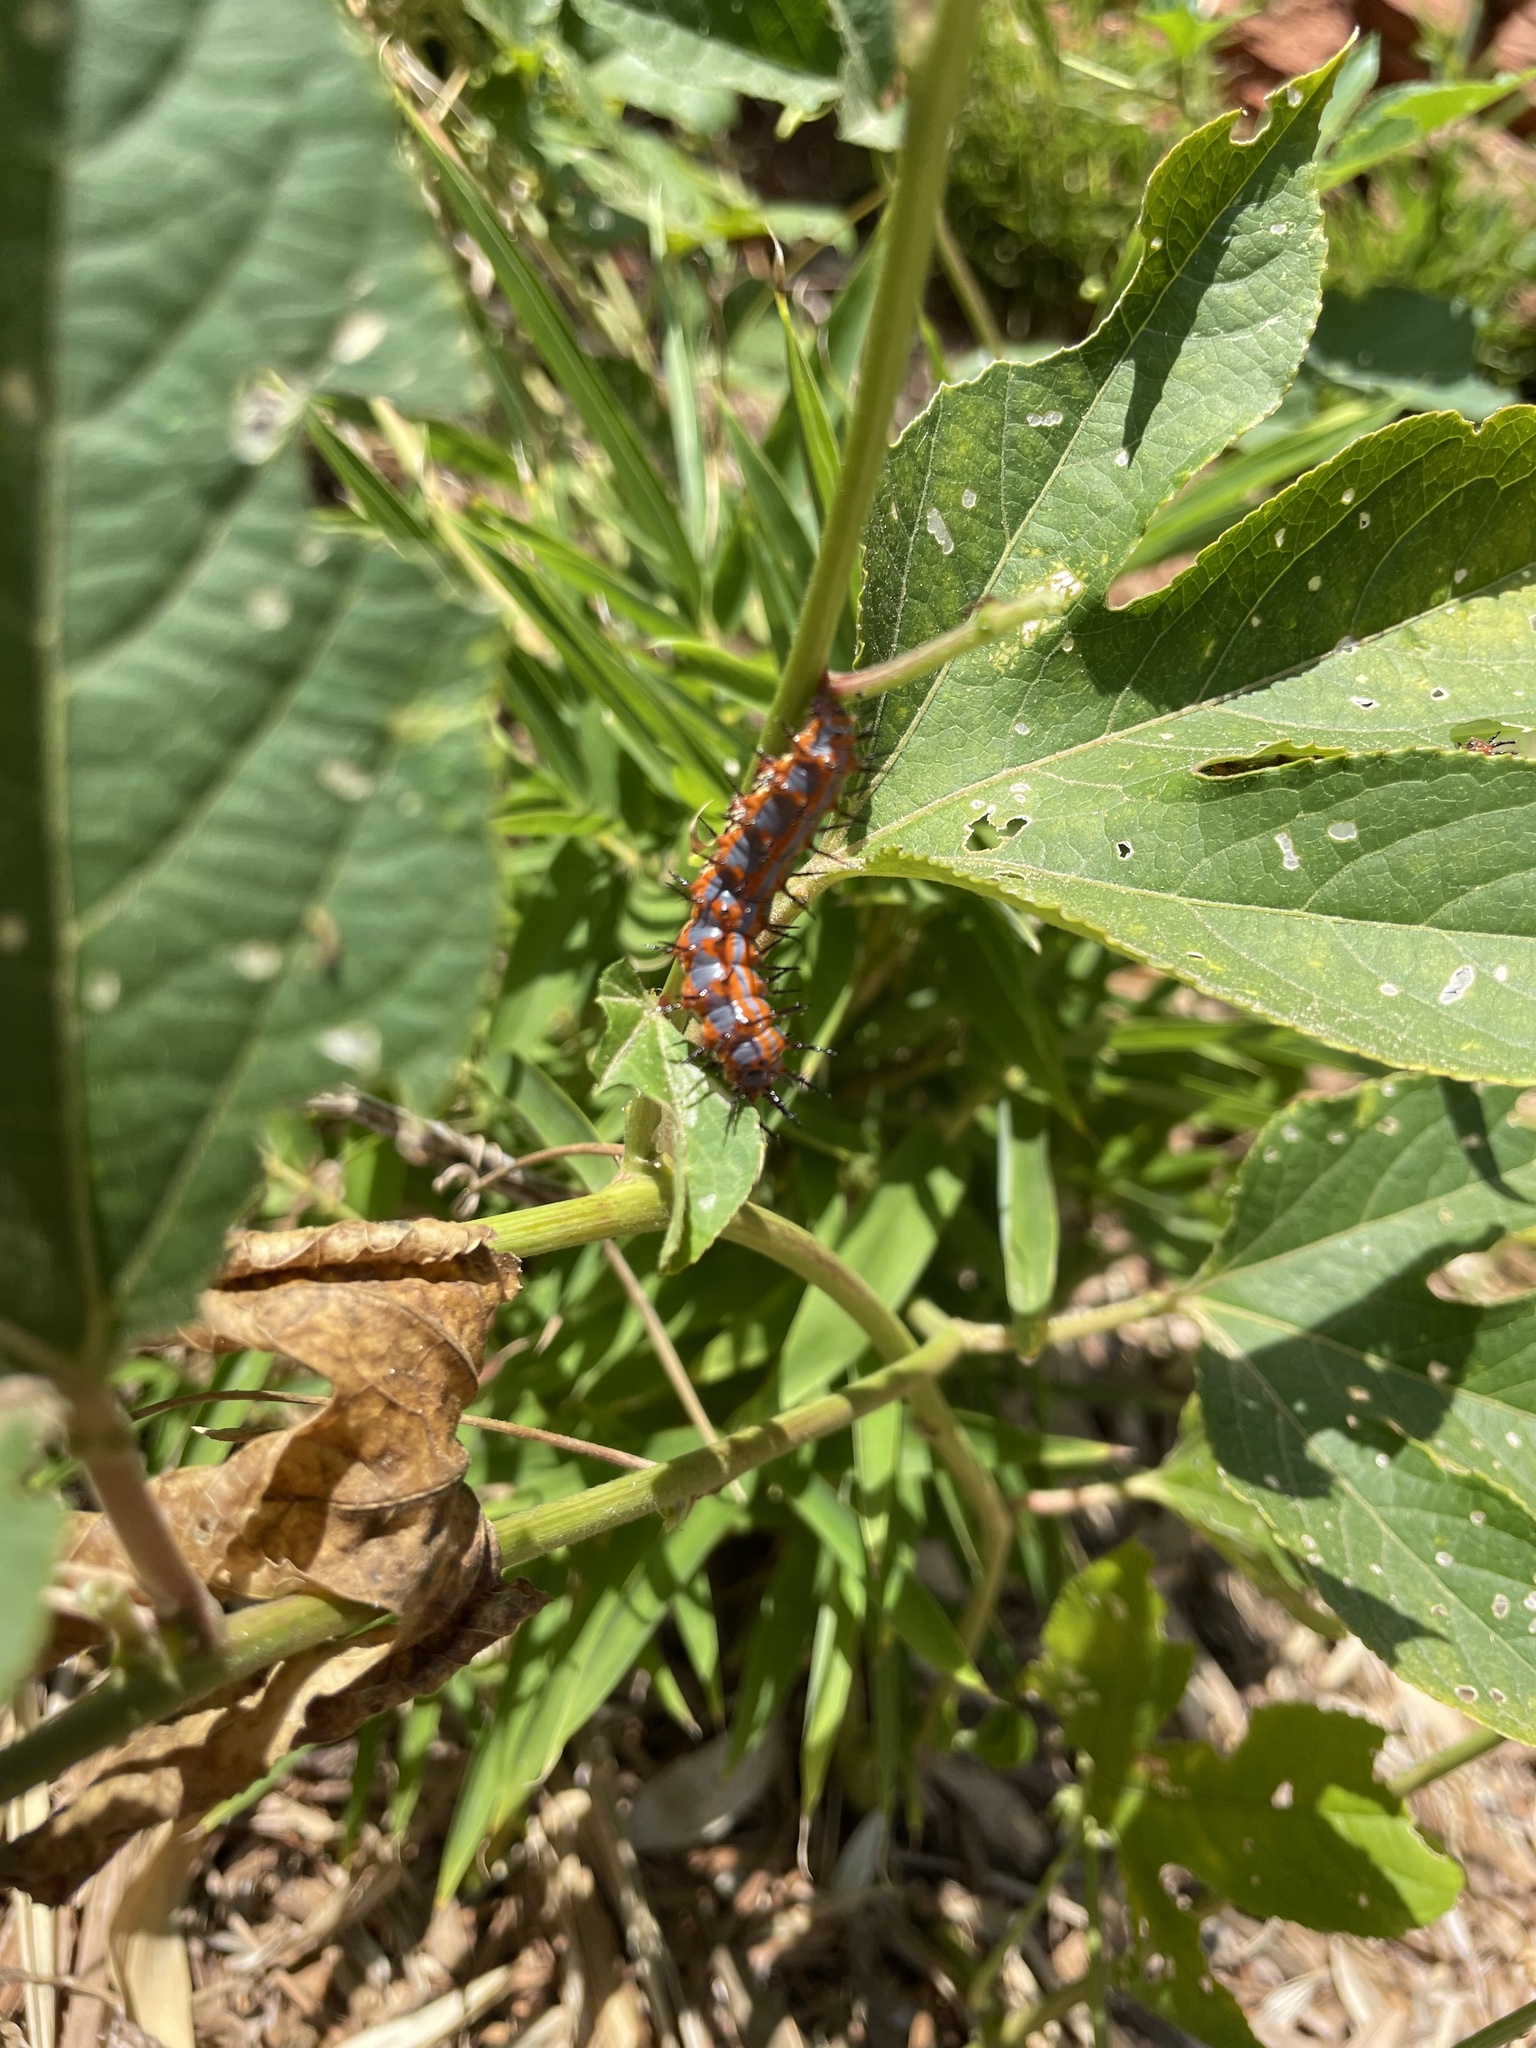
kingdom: Animalia
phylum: Arthropoda
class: Insecta
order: Lepidoptera
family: Nymphalidae
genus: Dione
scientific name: Dione vanillae
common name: Gulf fritillary
